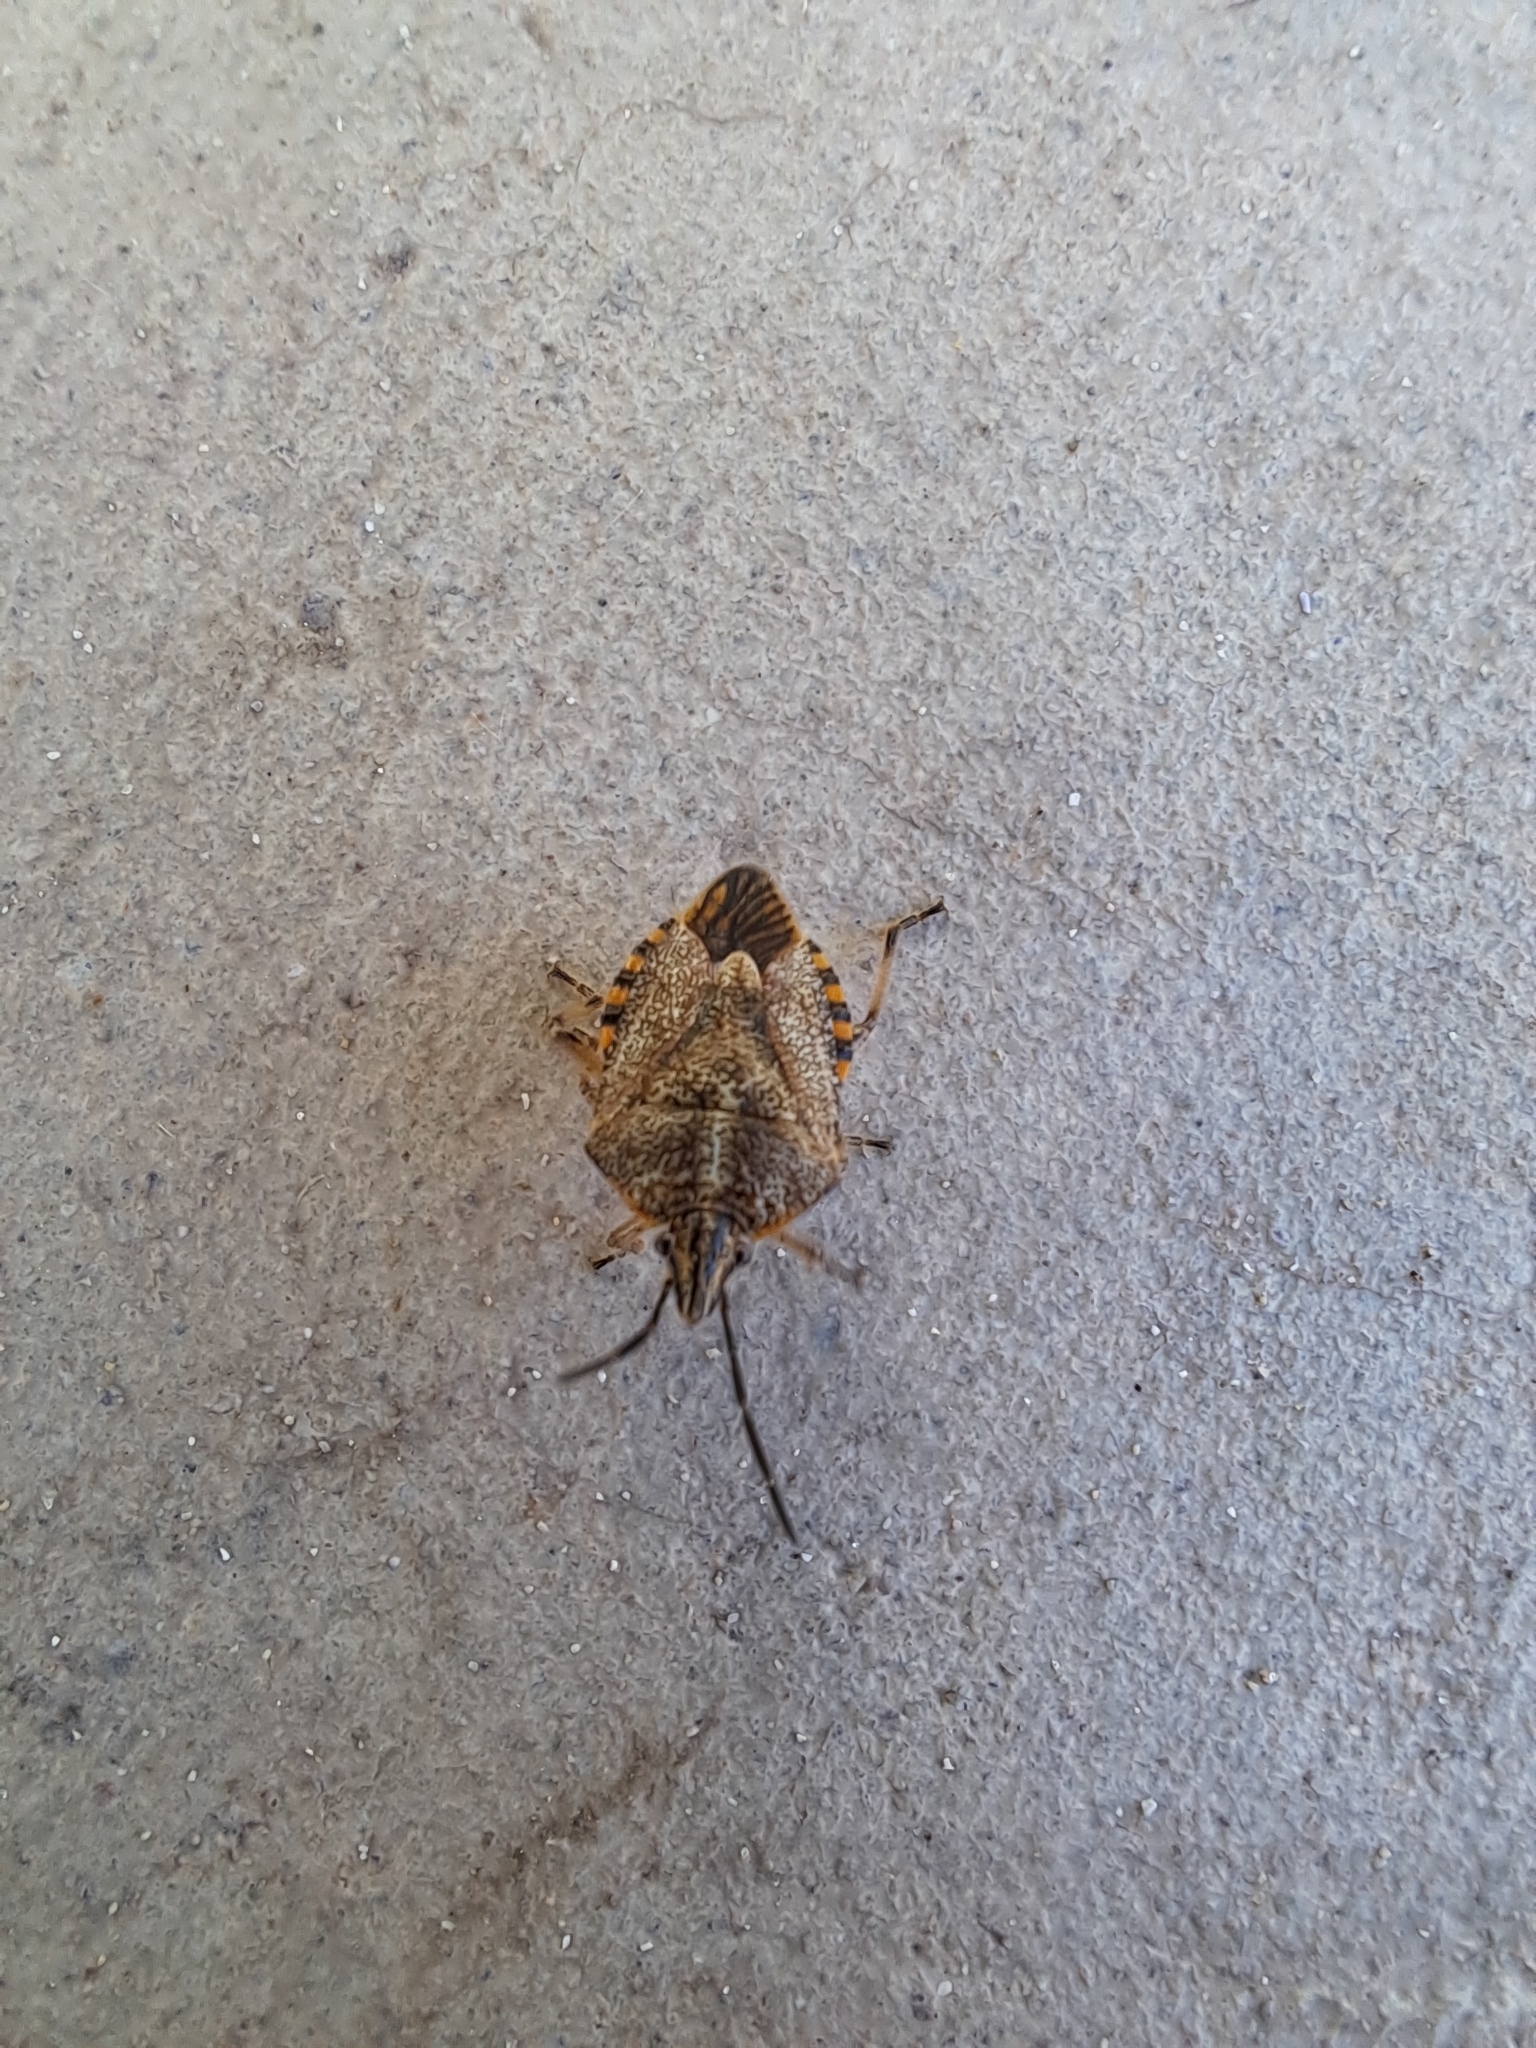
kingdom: Animalia
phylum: Arthropoda
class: Insecta
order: Hemiptera
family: Pentatomidae
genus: Agonoscelis
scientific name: Agonoscelis versicoloratus
